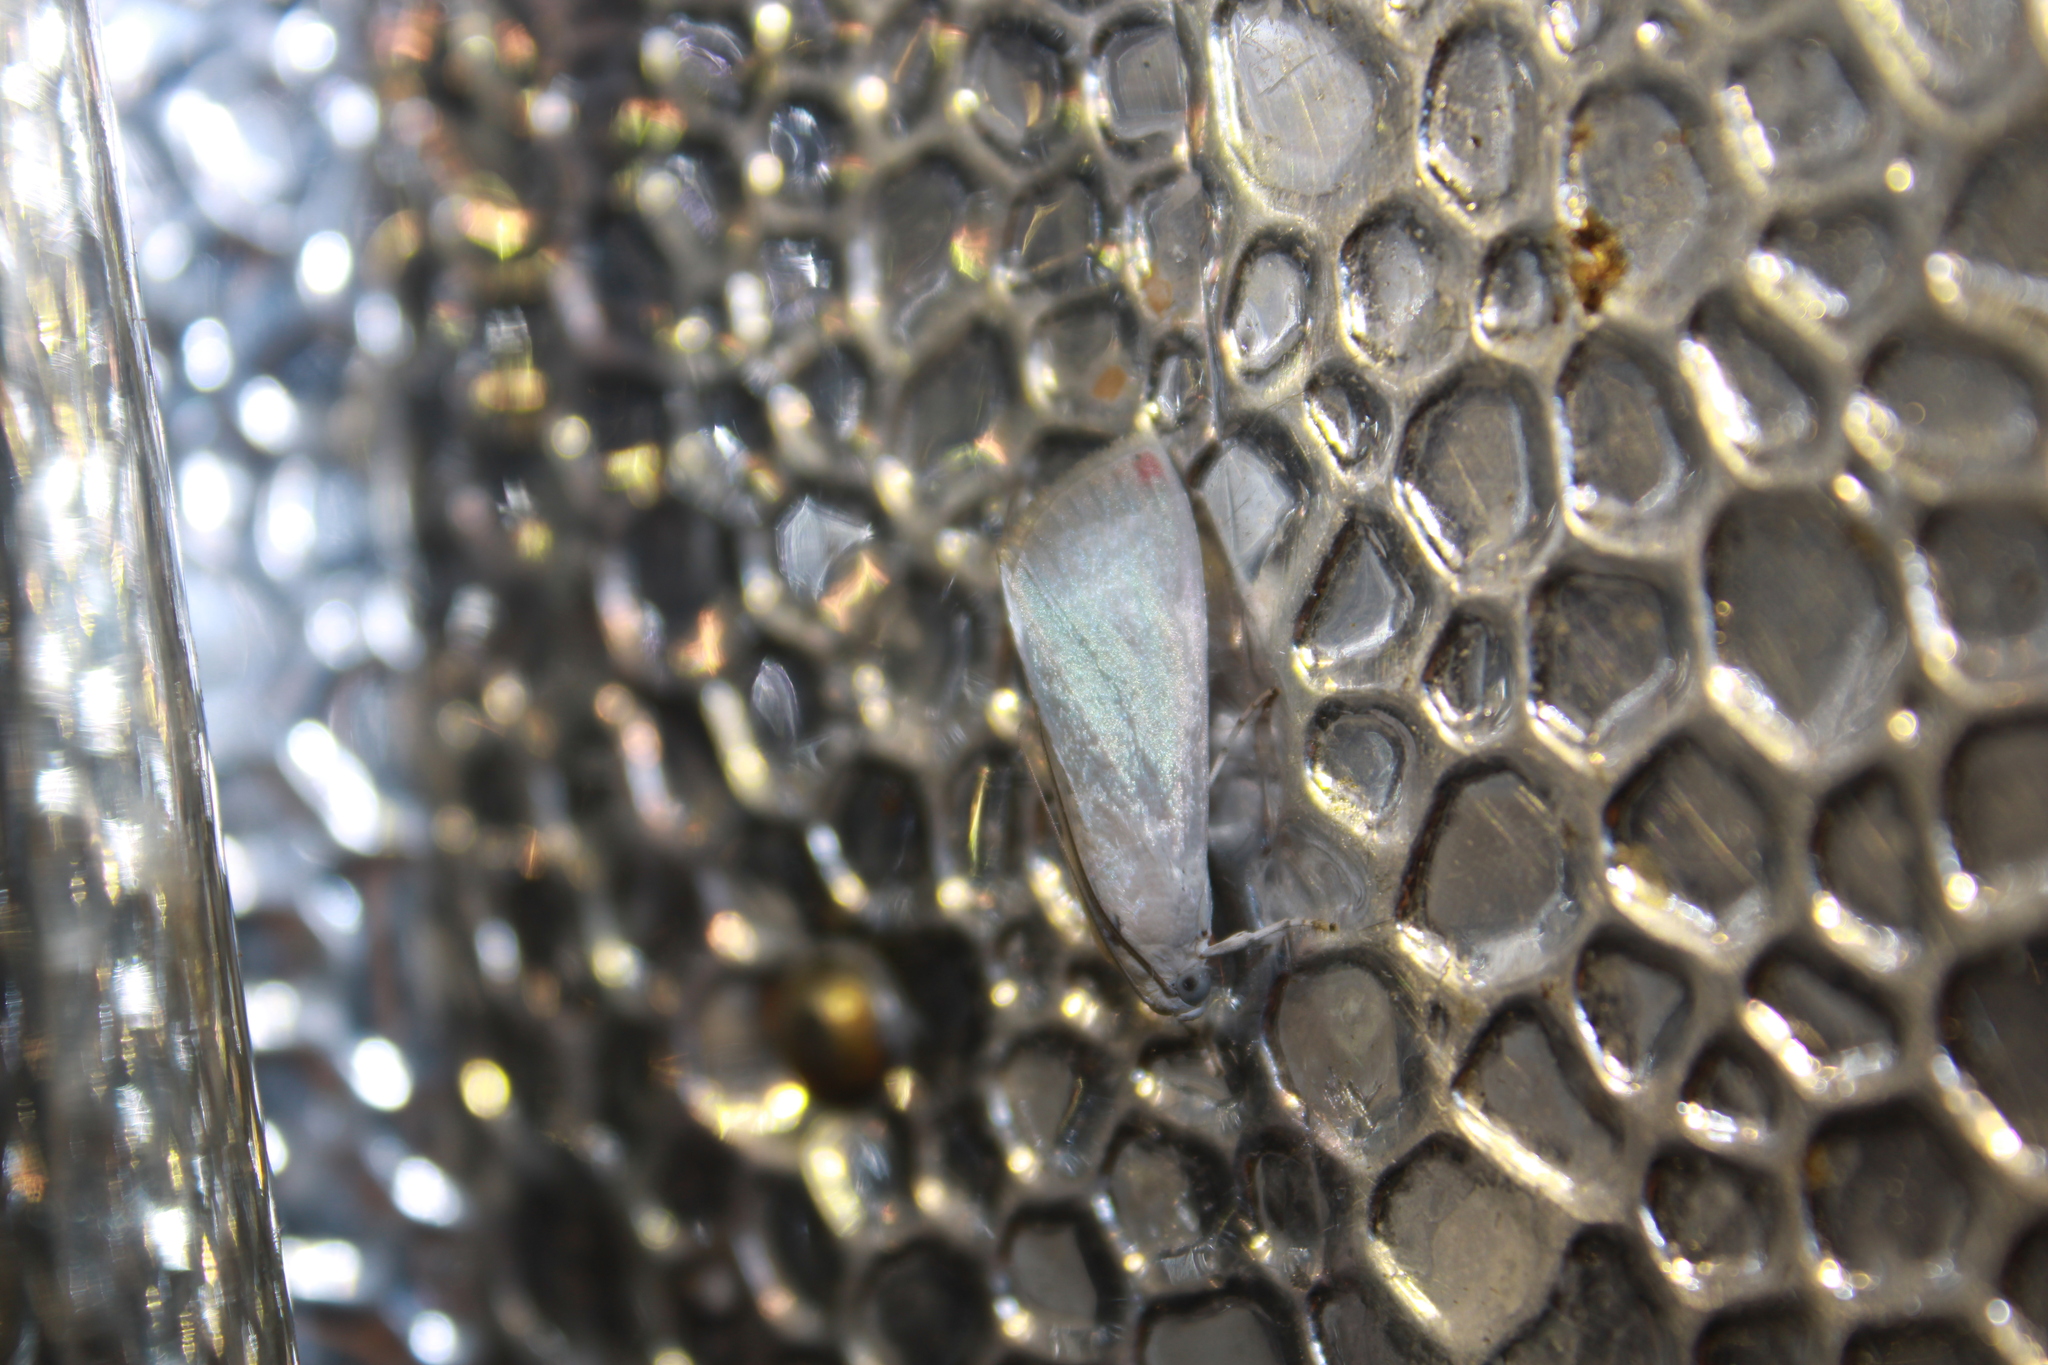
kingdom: Animalia
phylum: Arthropoda
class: Insecta
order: Lepidoptera
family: Crambidae
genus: Dichogama
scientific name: Dichogama amabilis
